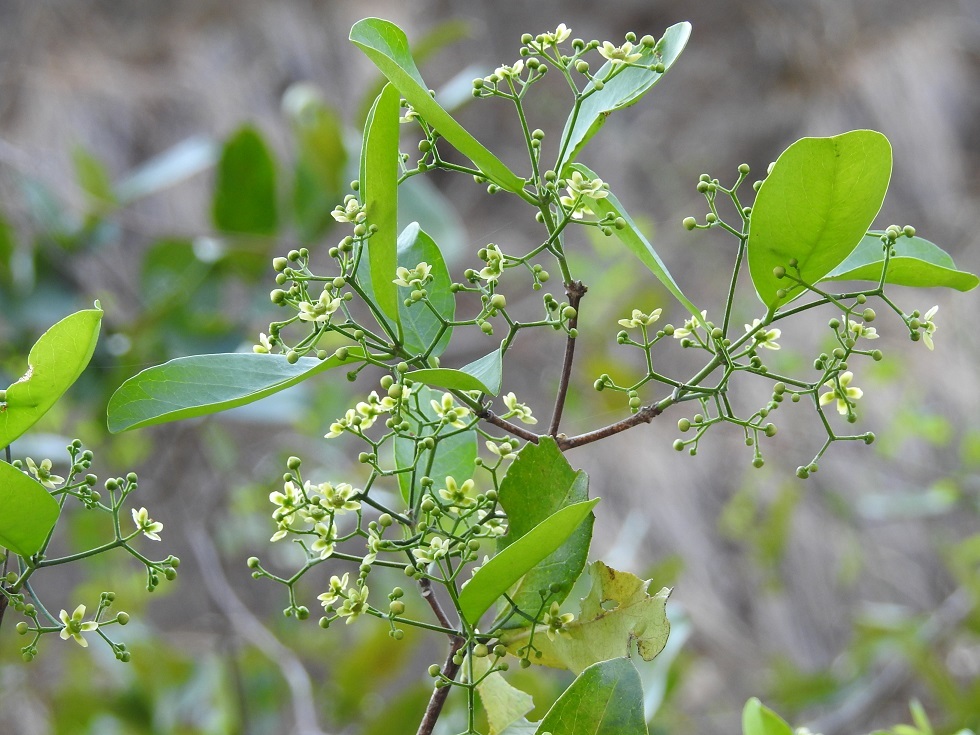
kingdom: Plantae
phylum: Tracheophyta
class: Magnoliopsida
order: Celastrales
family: Celastraceae
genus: Semialarium
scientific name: Semialarium mexicanum
